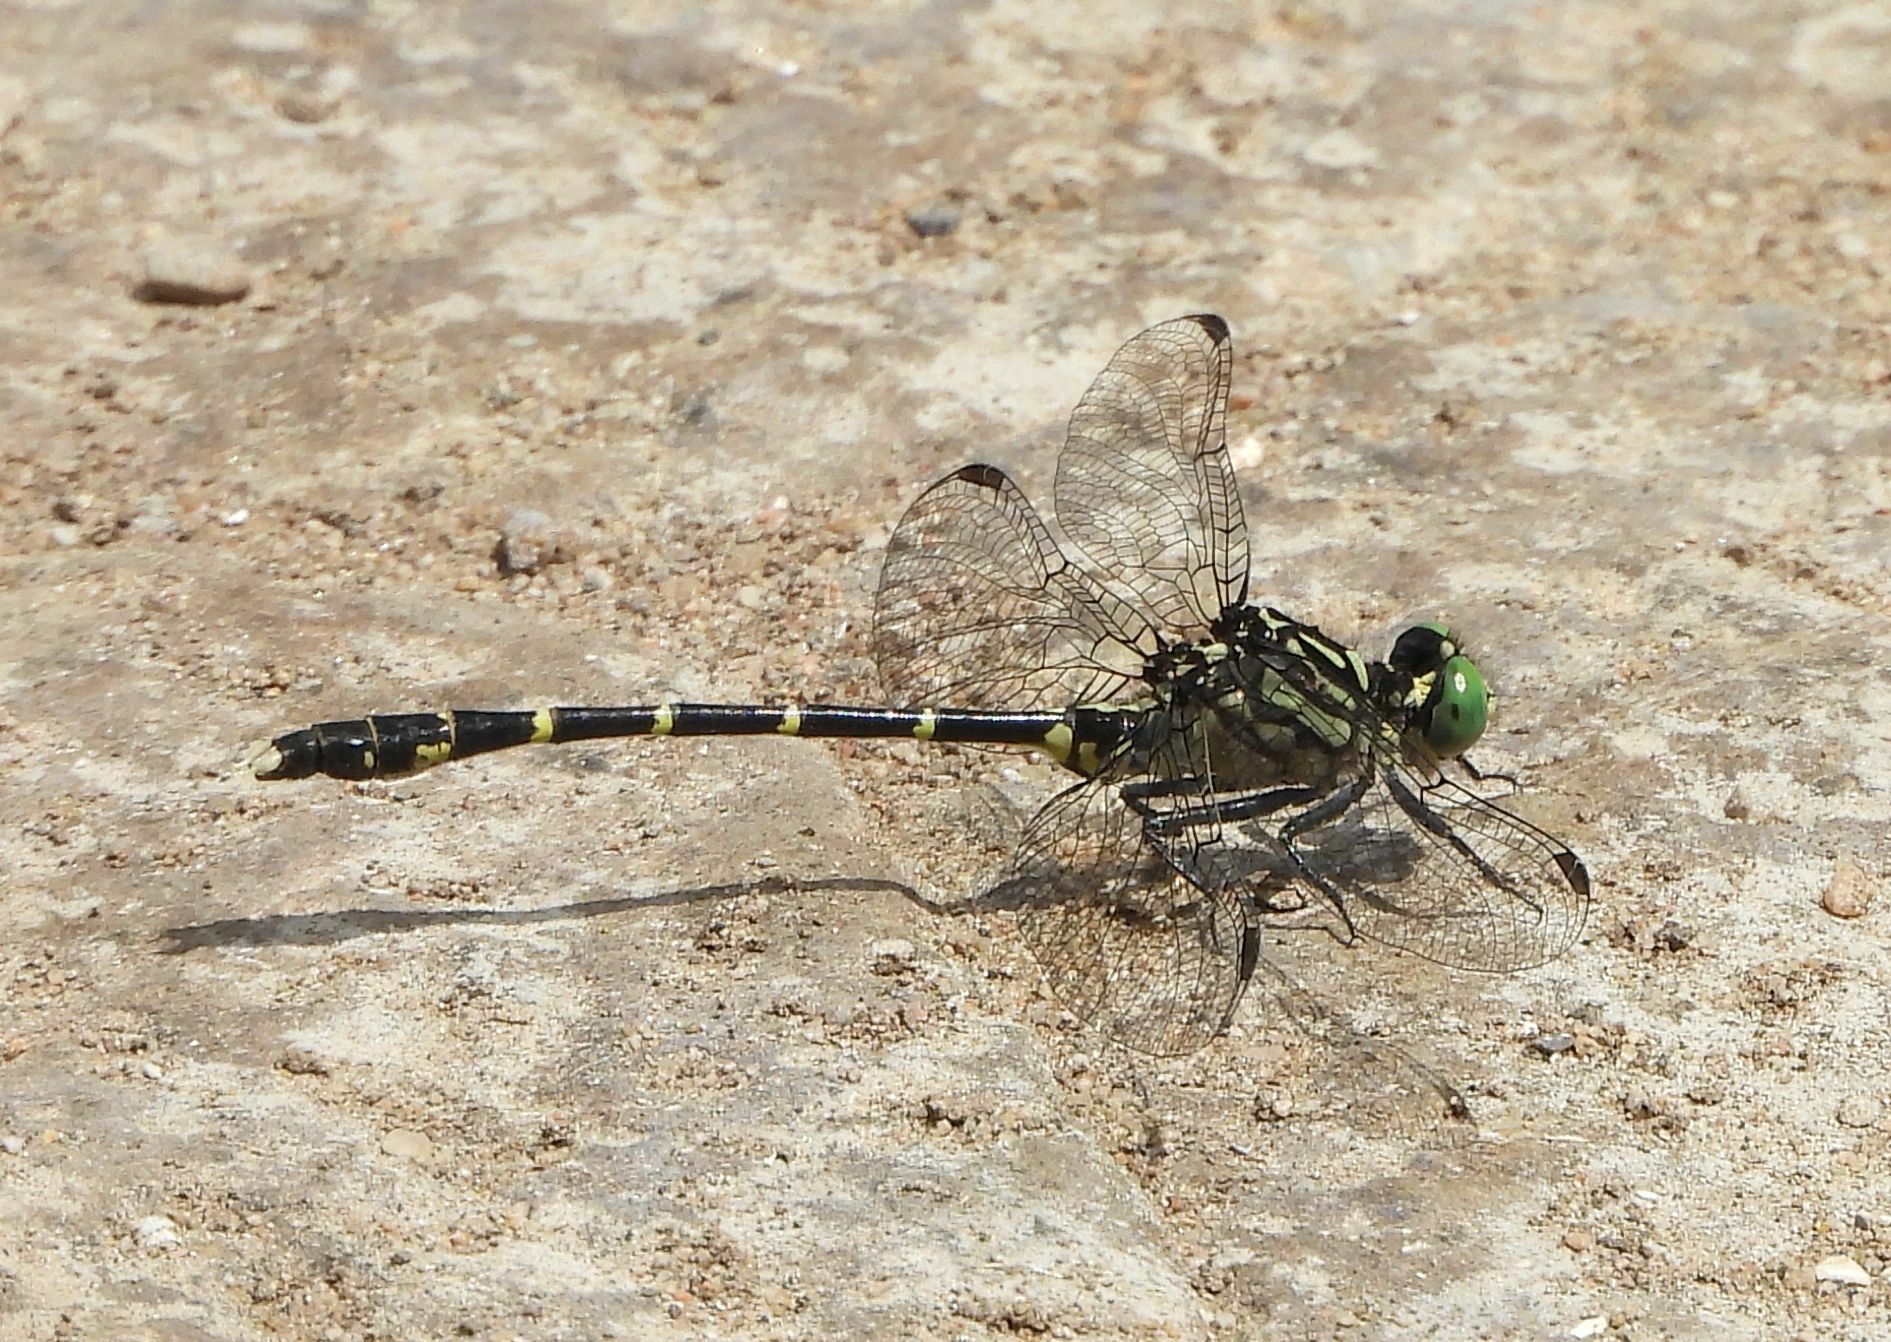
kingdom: Animalia
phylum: Arthropoda
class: Insecta
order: Odonata
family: Gomphidae
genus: Stylogomphus
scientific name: Stylogomphus albistylus
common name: Eastern least clubtail
